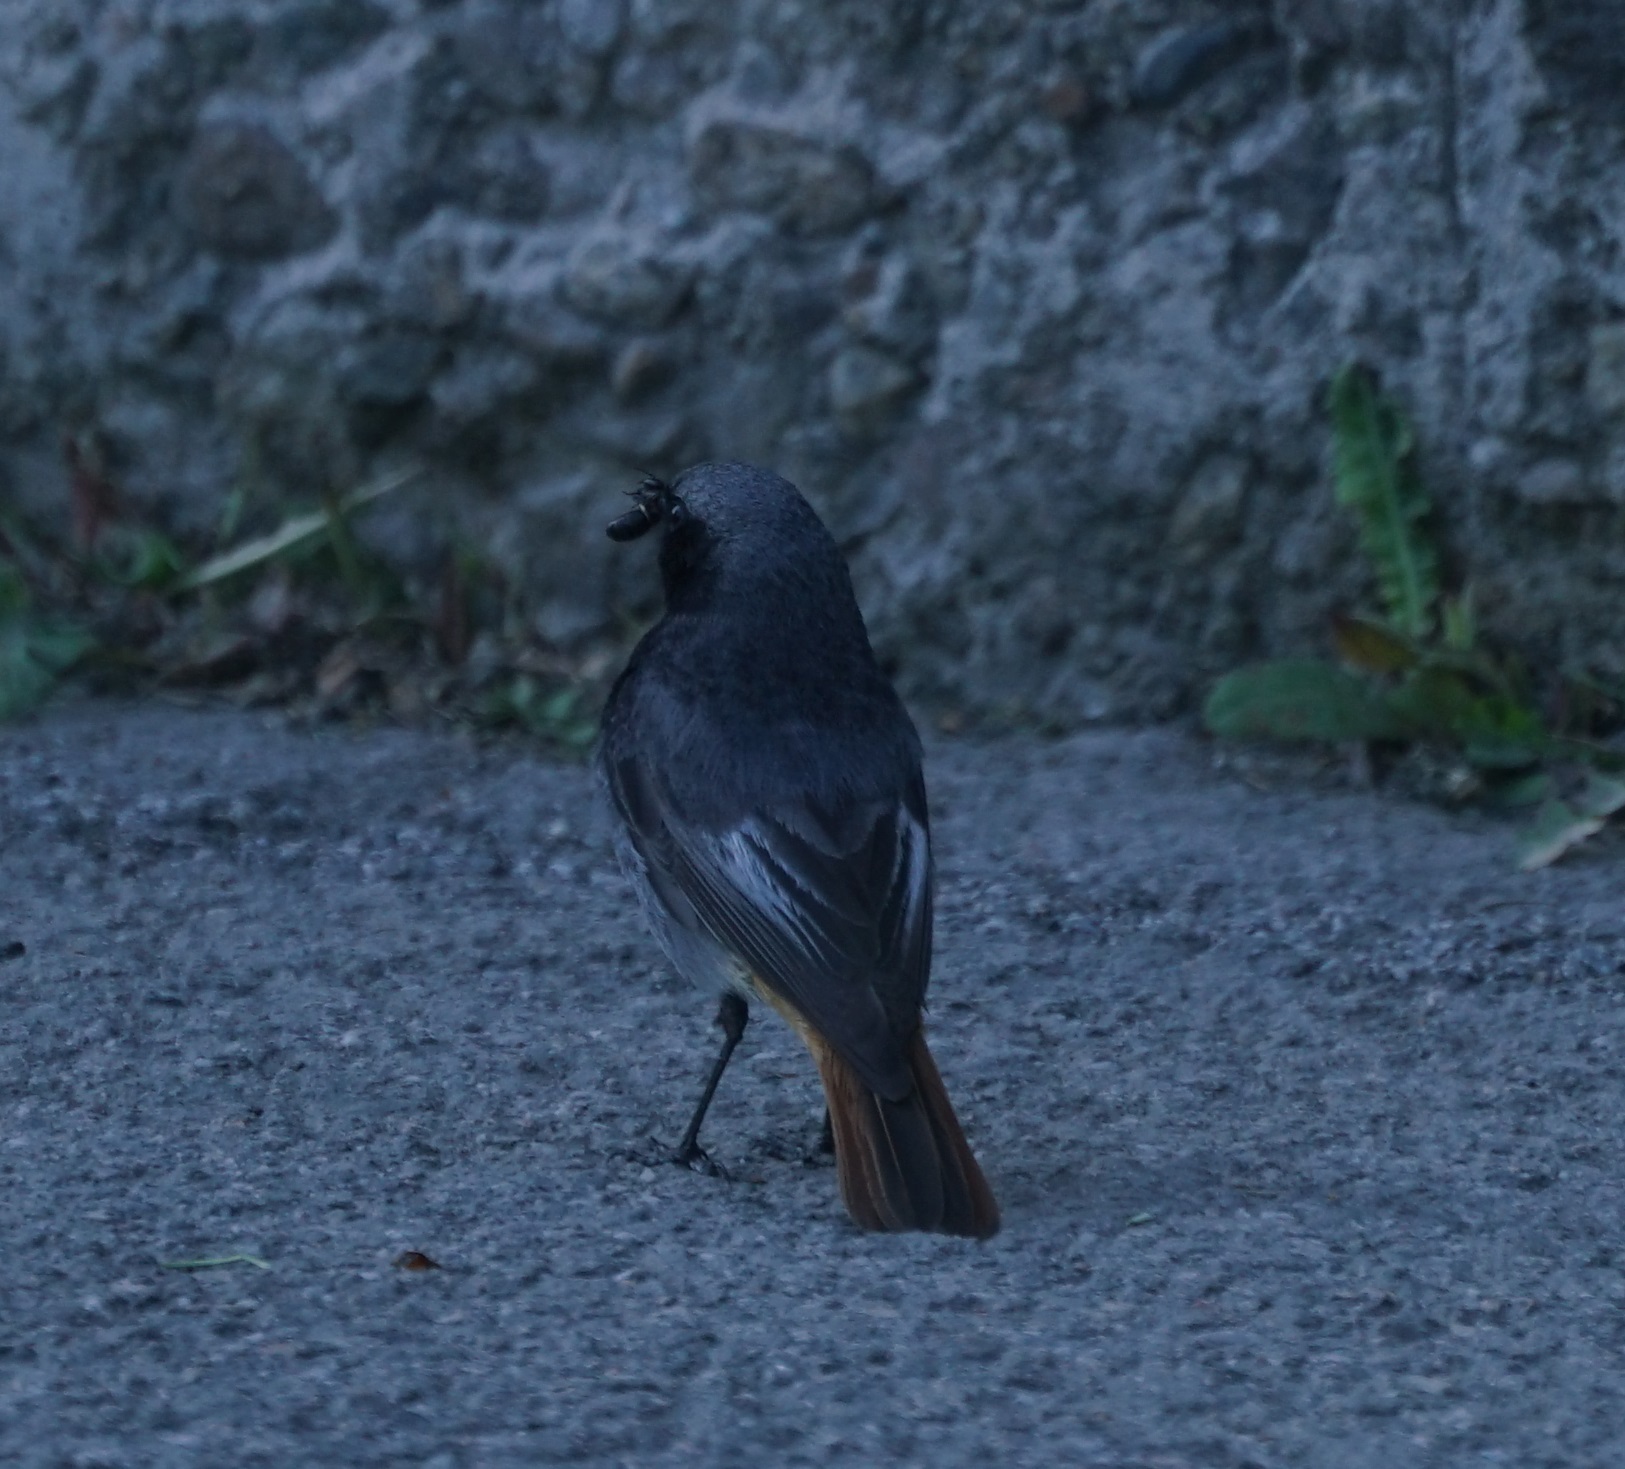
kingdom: Animalia
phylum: Chordata
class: Aves
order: Passeriformes
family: Muscicapidae
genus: Phoenicurus
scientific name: Phoenicurus ochruros
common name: Black redstart
